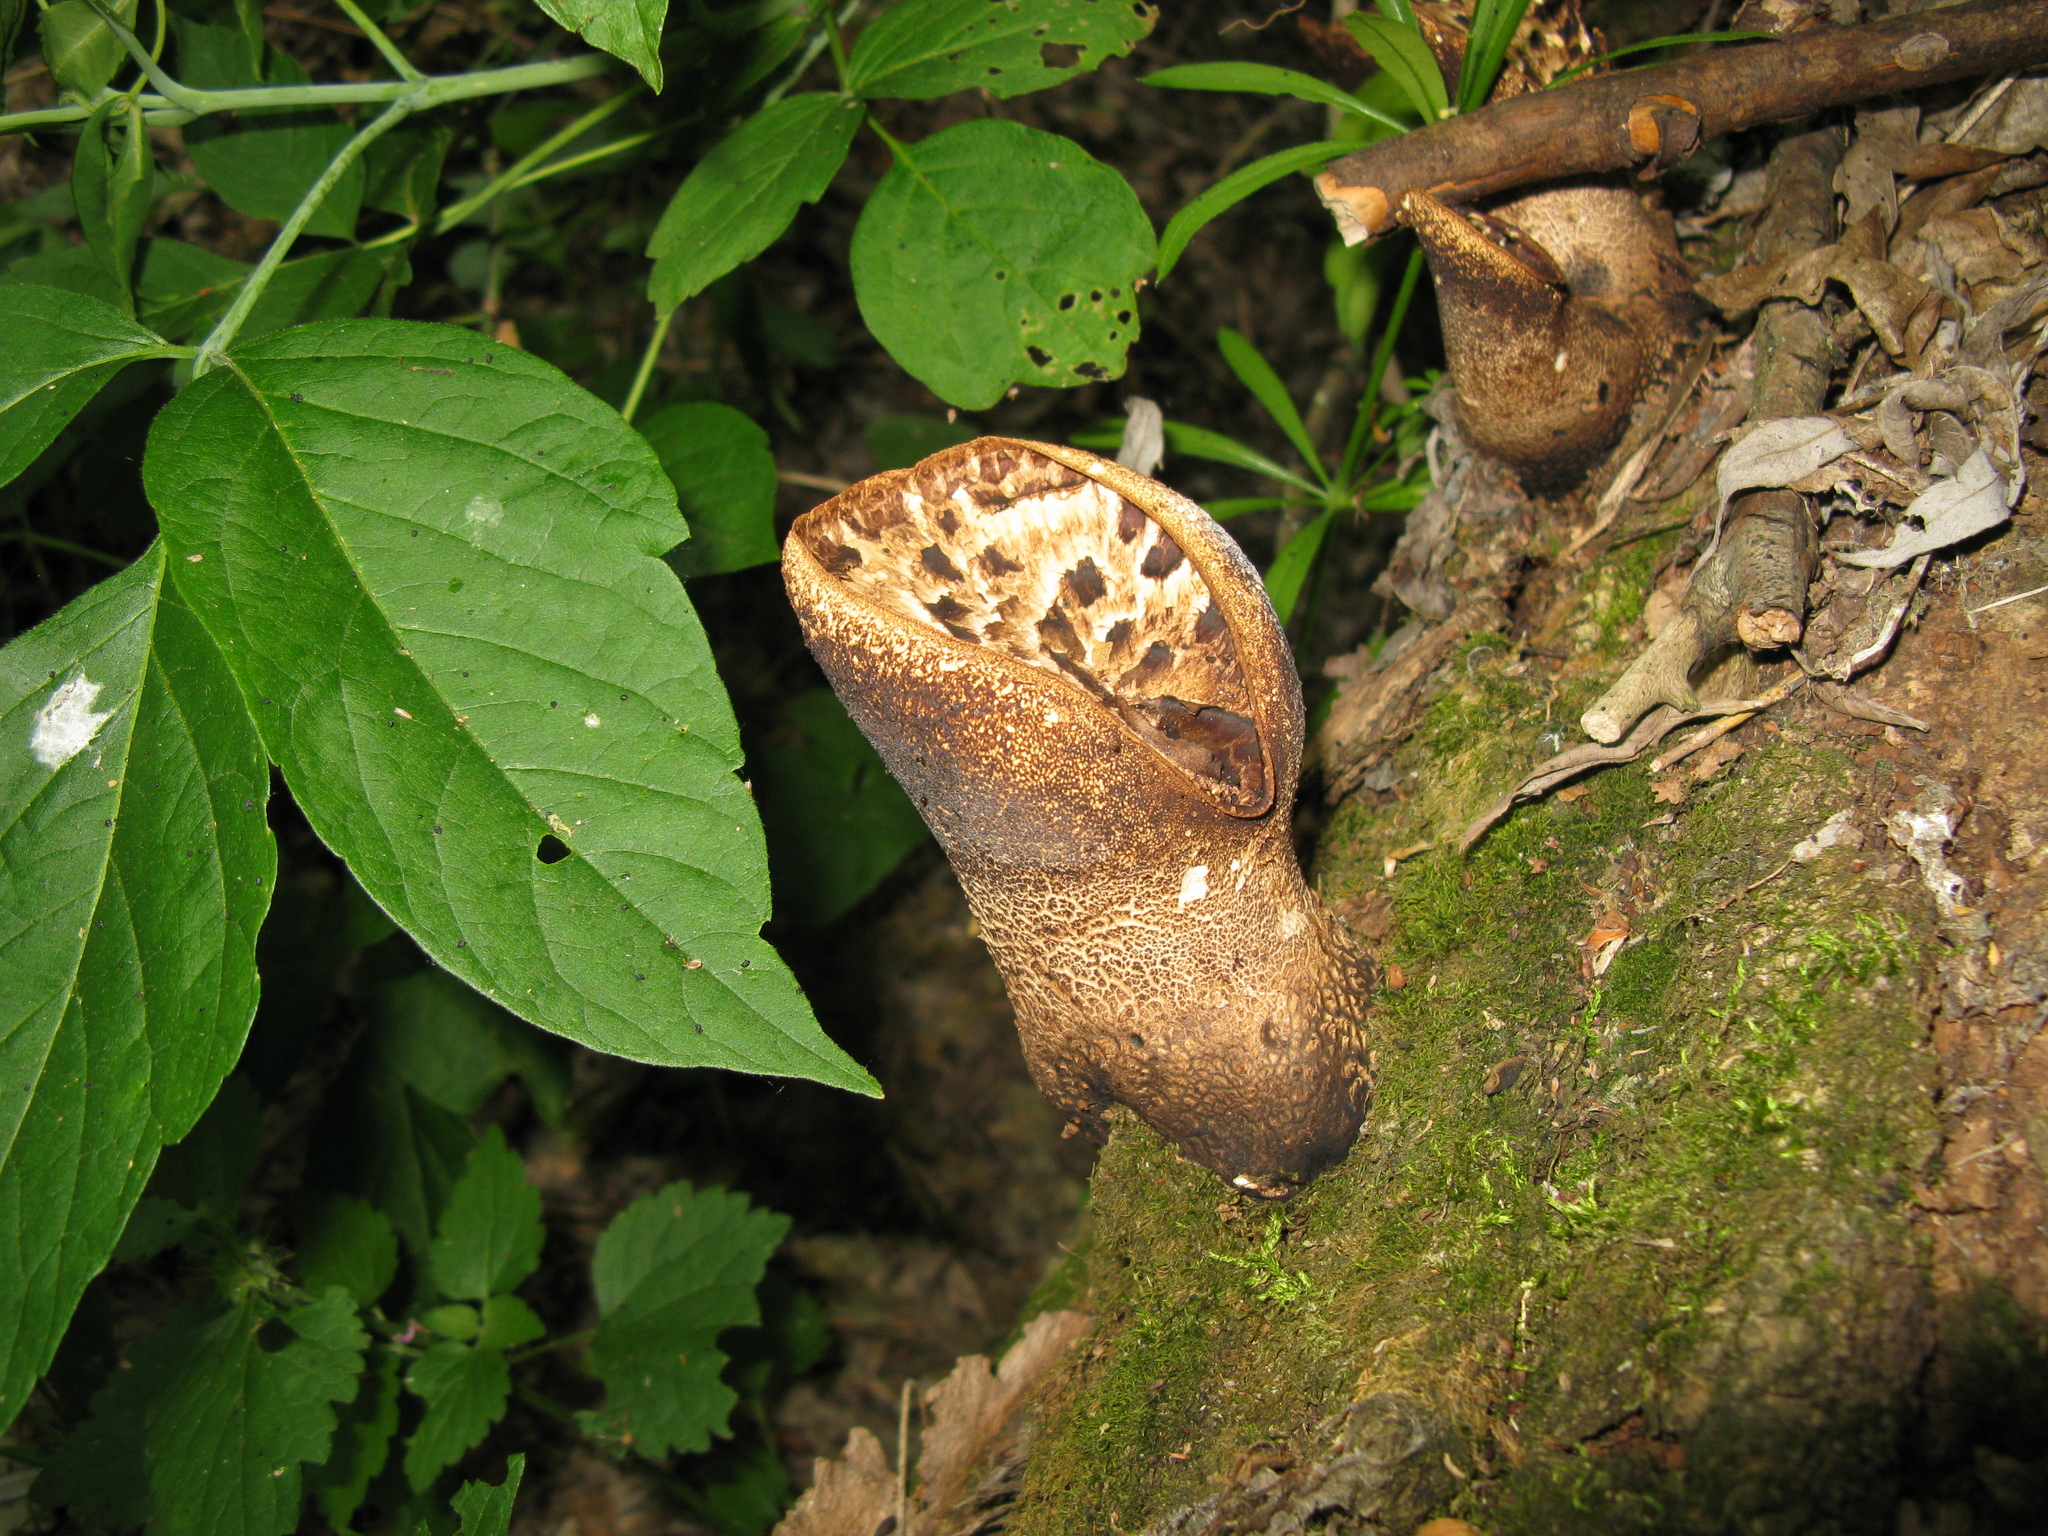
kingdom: Fungi
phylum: Basidiomycota
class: Agaricomycetes
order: Polyporales
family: Polyporaceae
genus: Cerioporus
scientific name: Cerioporus squamosus
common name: Dryad's saddle
